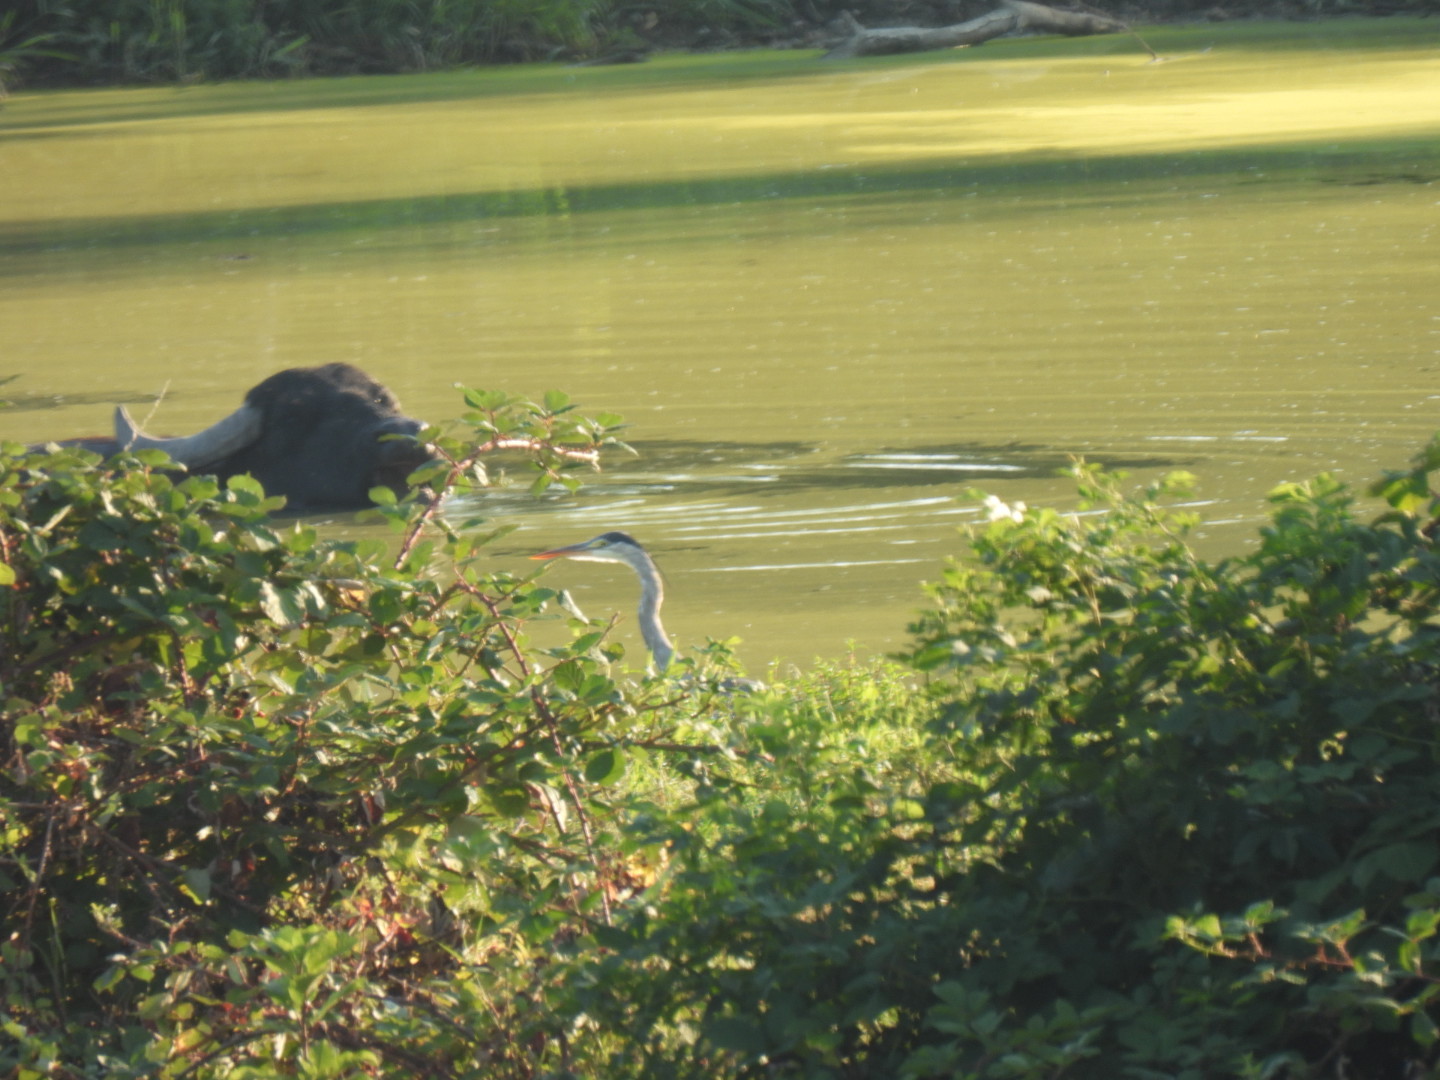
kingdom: Animalia
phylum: Chordata
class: Aves
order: Pelecaniformes
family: Ardeidae
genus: Ardea
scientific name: Ardea cinerea
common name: Grey heron
